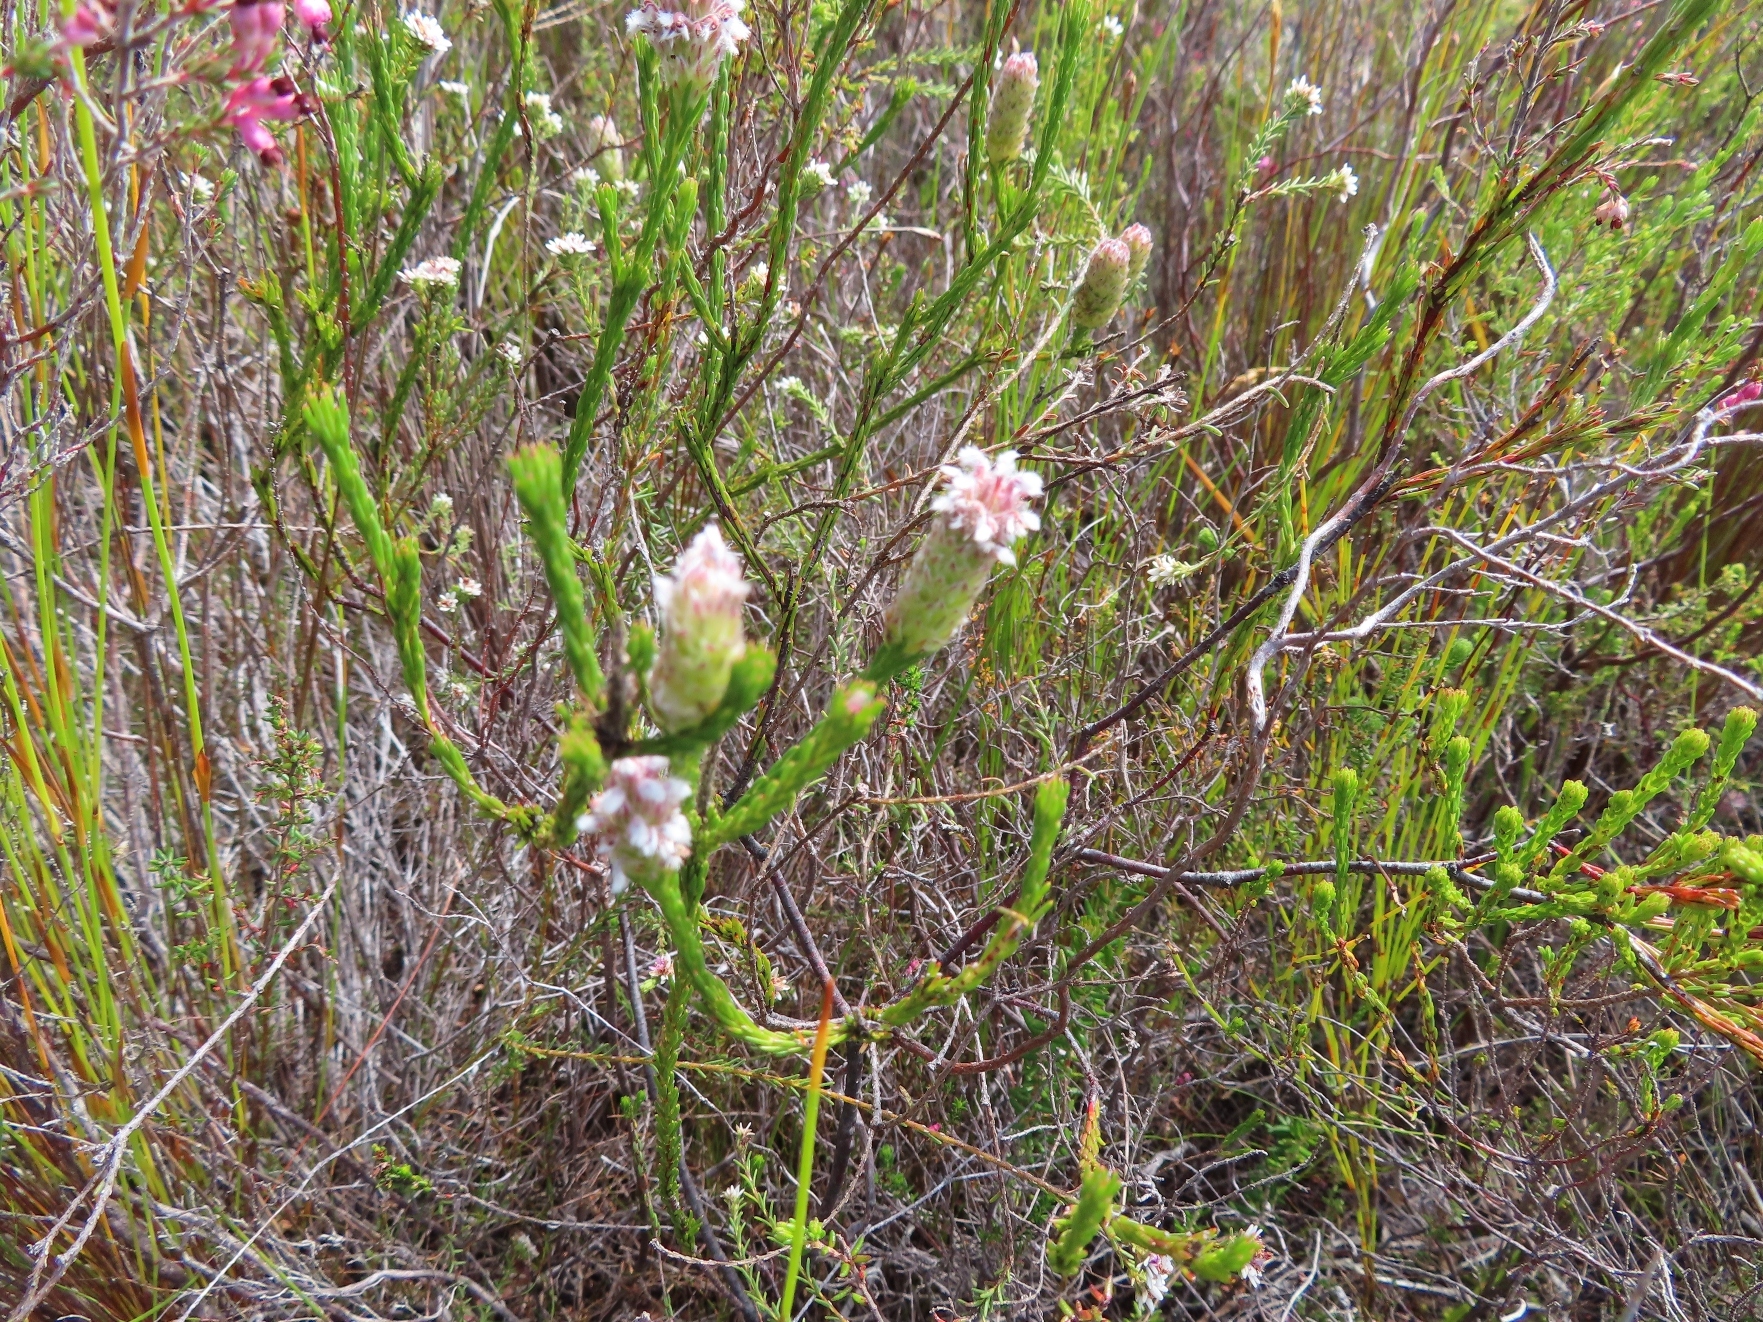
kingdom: Plantae
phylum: Tracheophyta
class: Magnoliopsida
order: Proteales
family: Proteaceae
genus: Spatalla
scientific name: Spatalla ericoides
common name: Erica-leaf spoon
